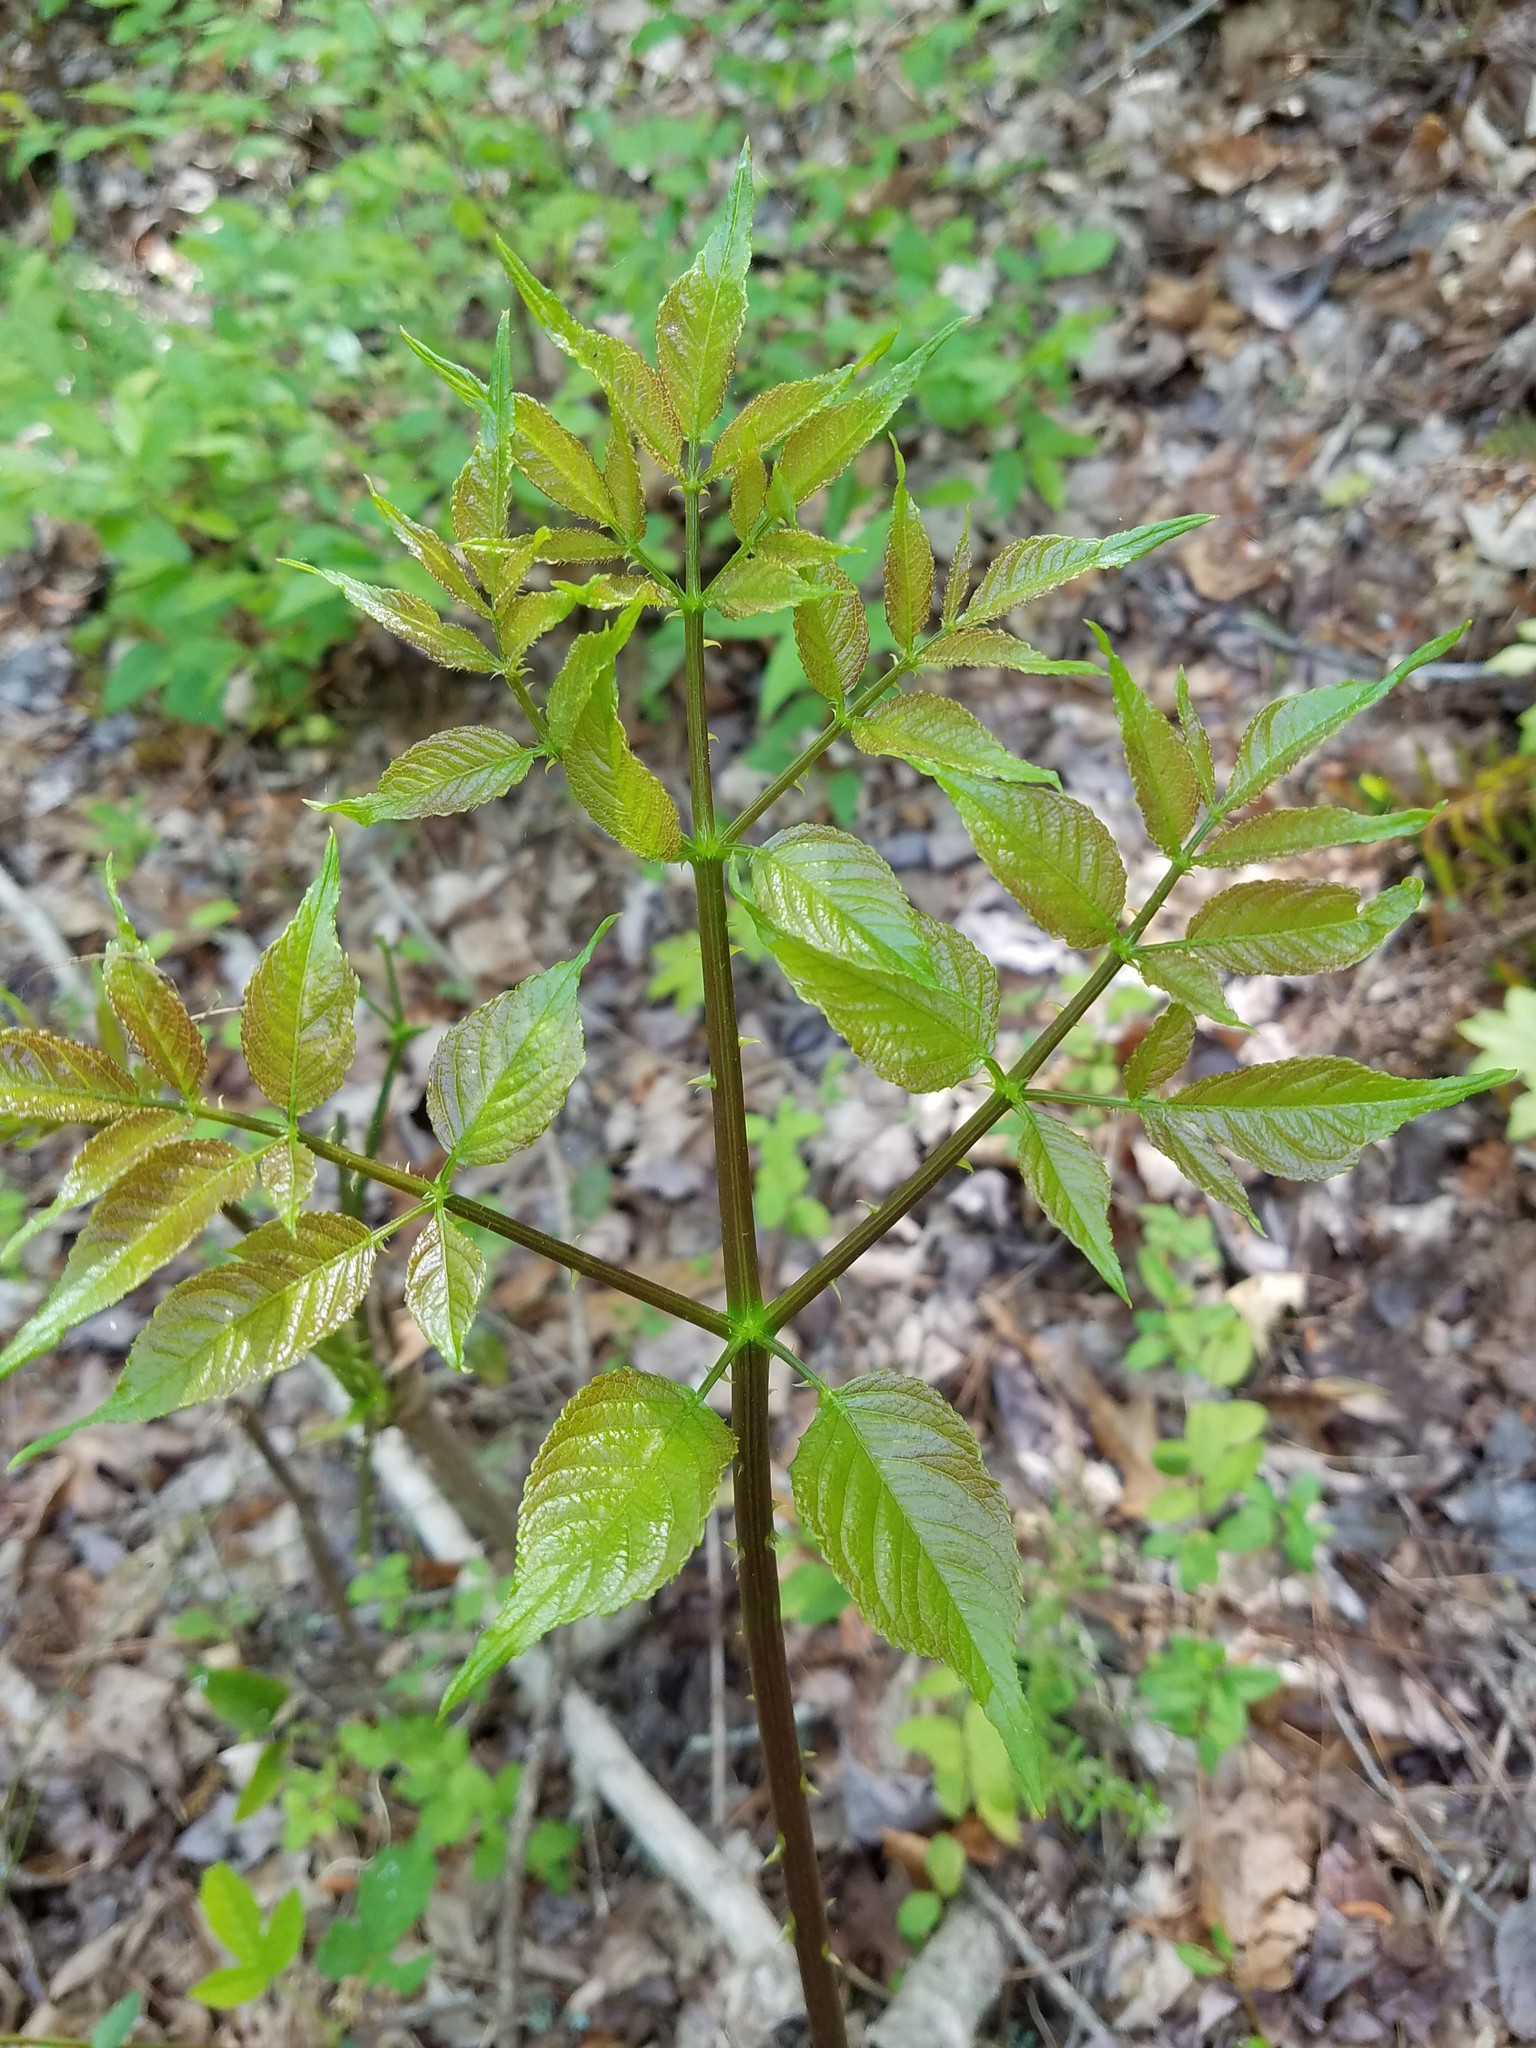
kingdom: Plantae
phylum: Tracheophyta
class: Magnoliopsida
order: Apiales
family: Araliaceae
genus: Aralia
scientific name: Aralia spinosa
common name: Hercules'-club
